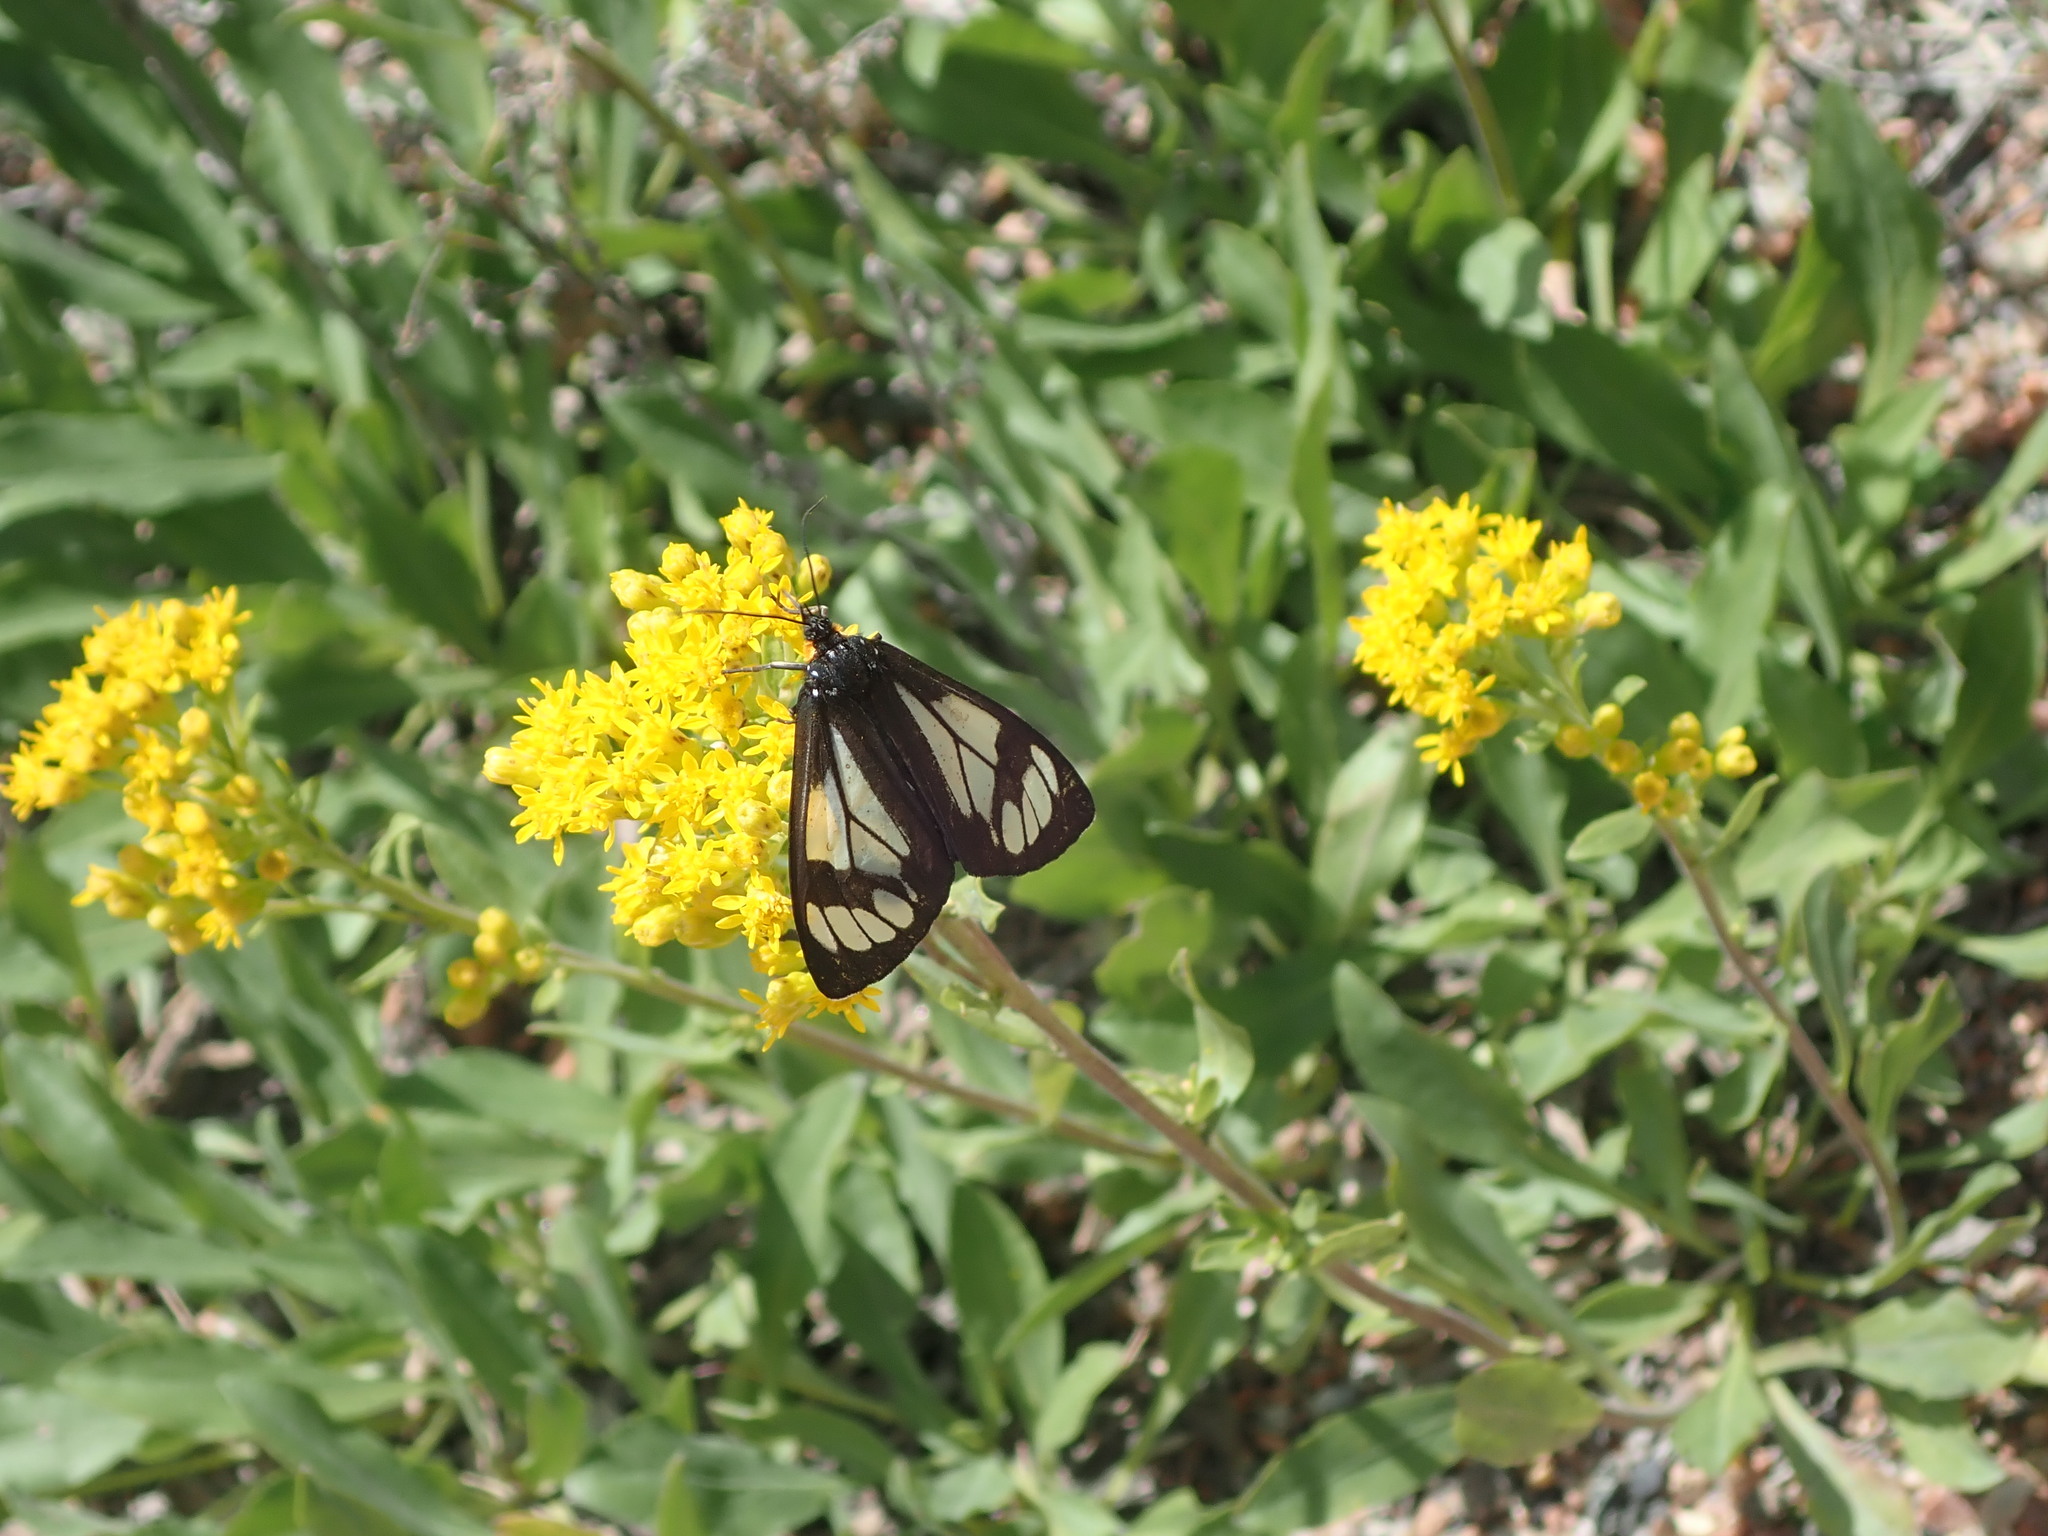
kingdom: Animalia
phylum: Arthropoda
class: Insecta
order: Lepidoptera
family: Erebidae
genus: Gnophaela
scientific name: Gnophaela vermiculata
